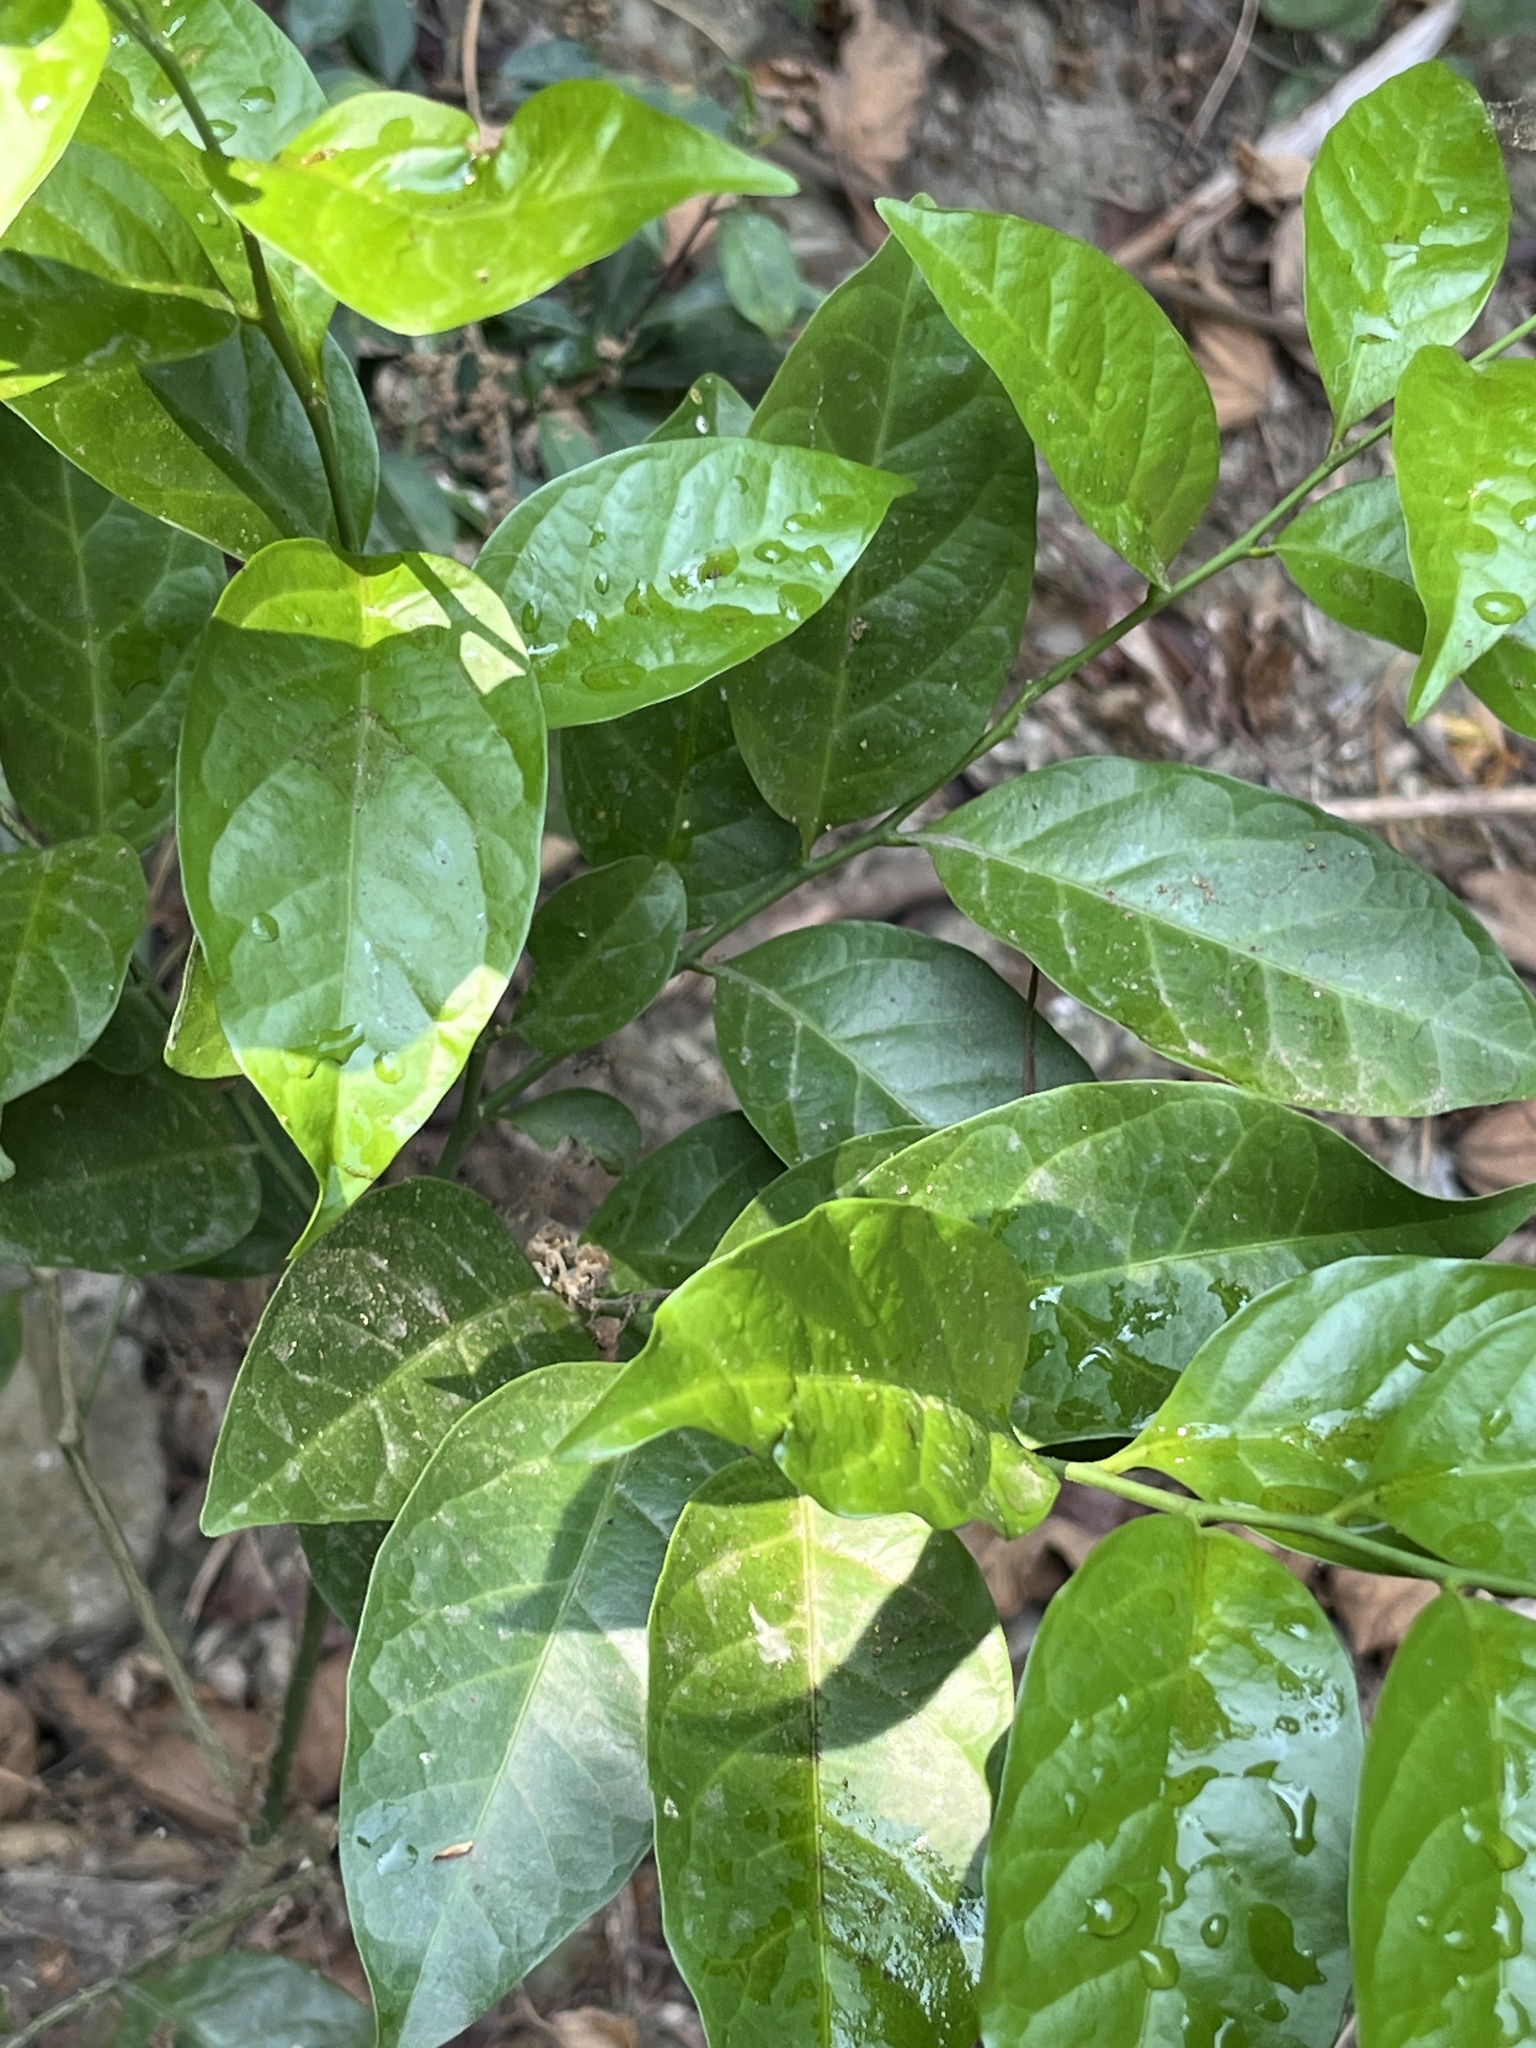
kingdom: Plantae
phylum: Tracheophyta
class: Magnoliopsida
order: Santalales
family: Opiliaceae
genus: Champereia
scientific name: Champereia manillana
